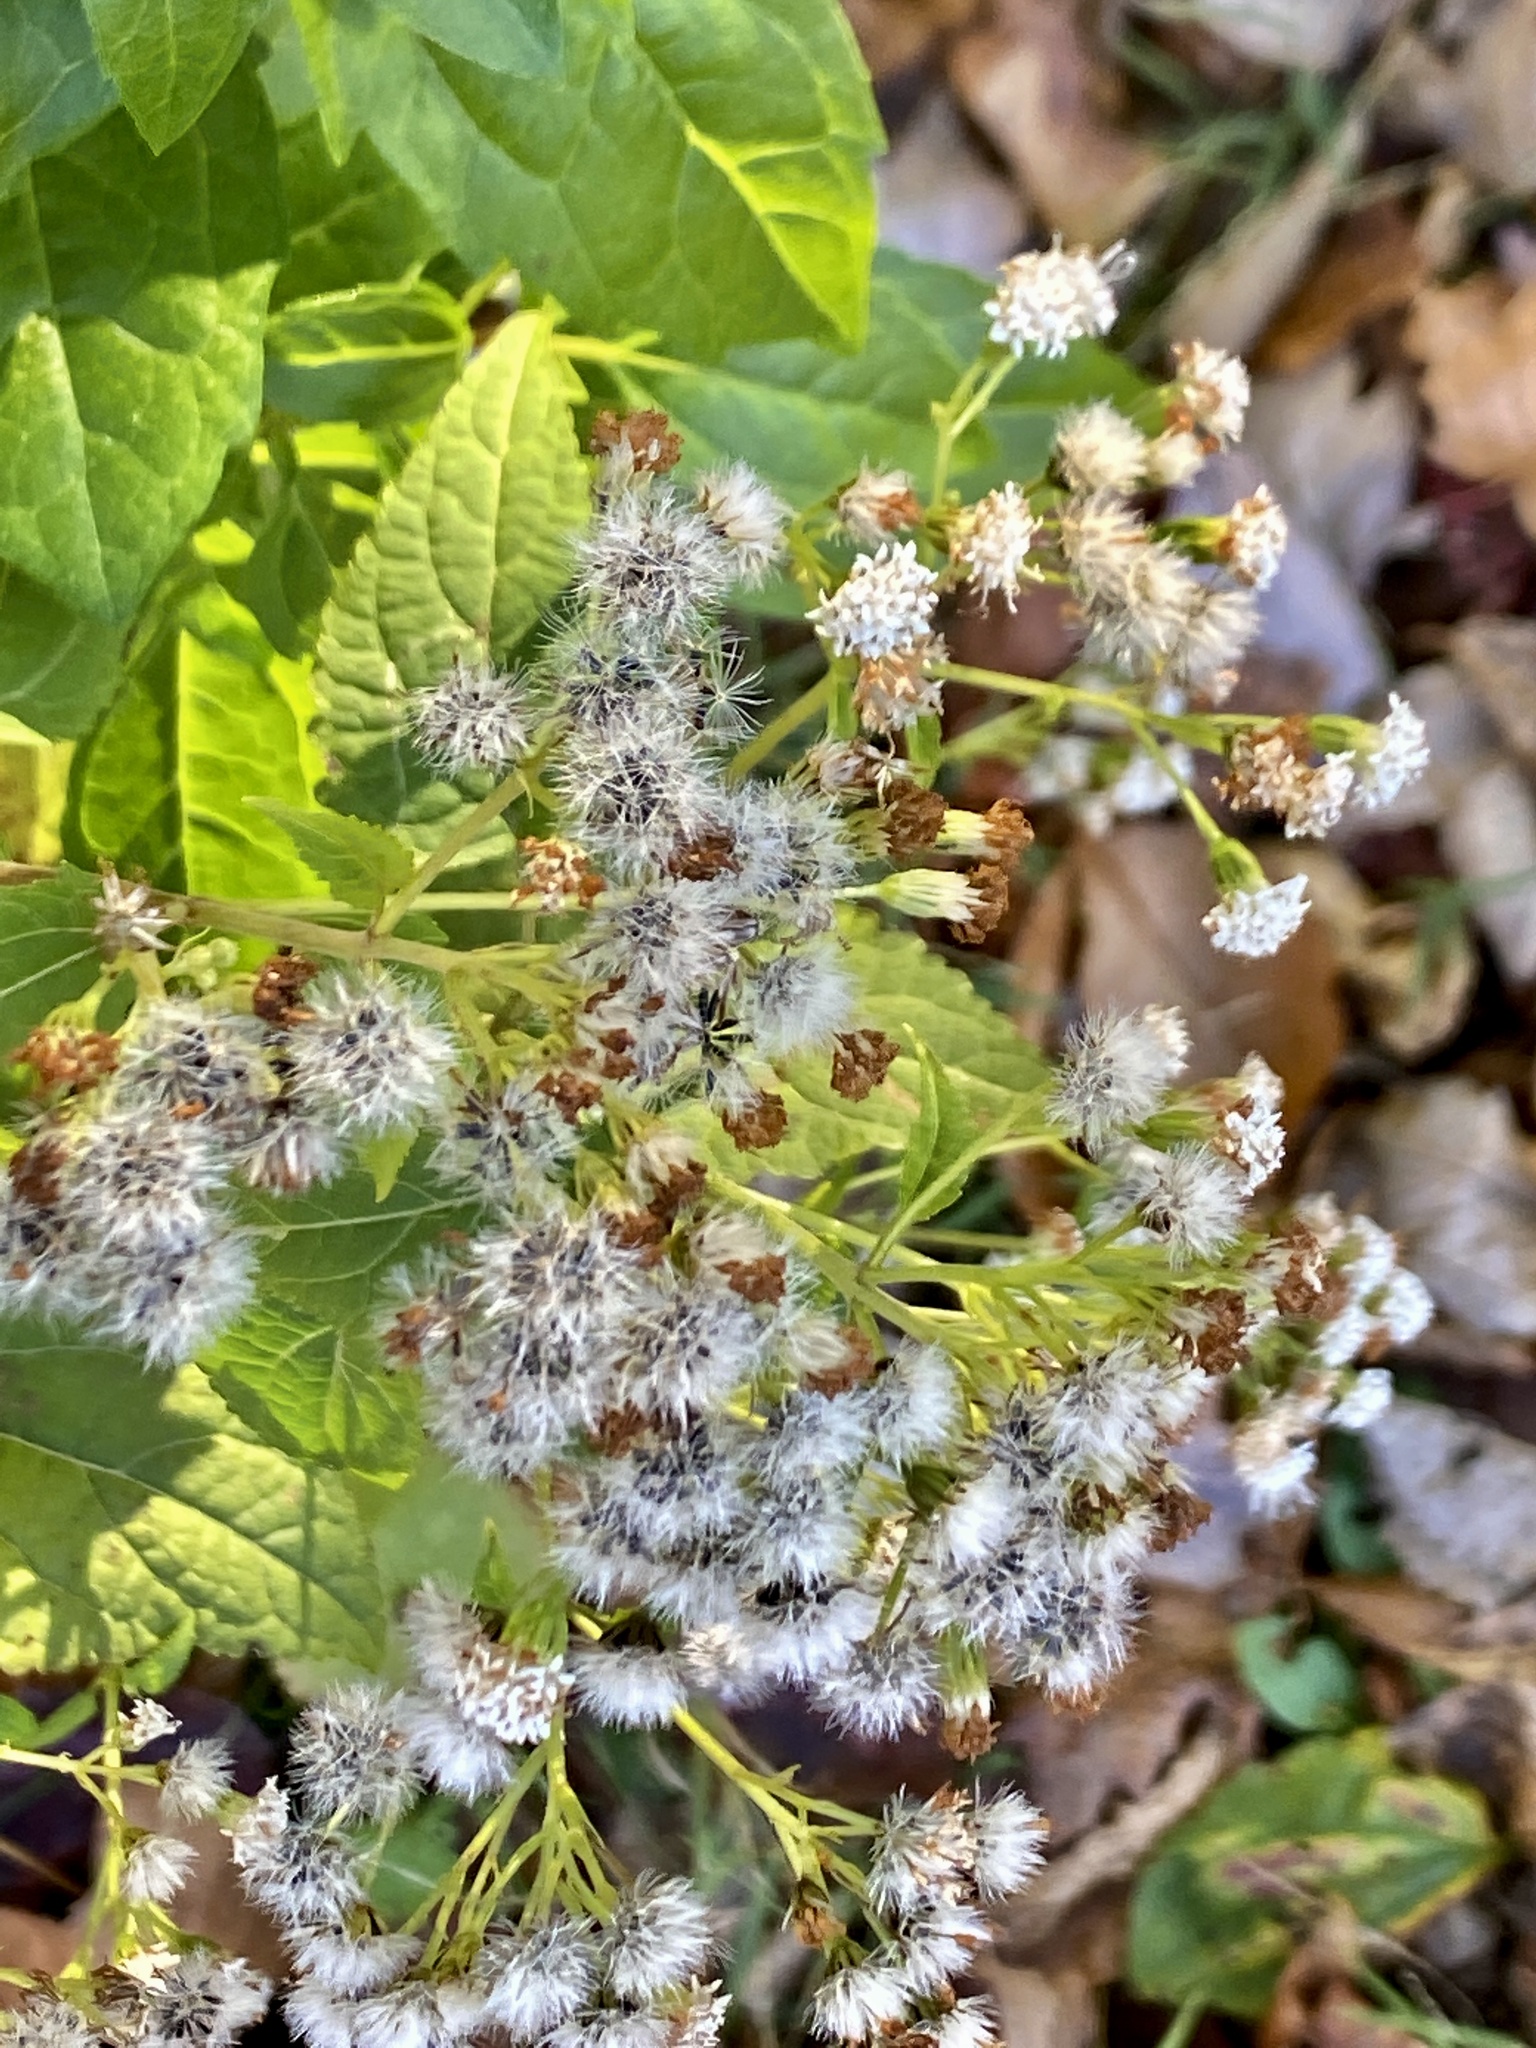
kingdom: Plantae
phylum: Tracheophyta
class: Magnoliopsida
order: Asterales
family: Asteraceae
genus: Ageratina
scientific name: Ageratina altissima
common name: White snakeroot
